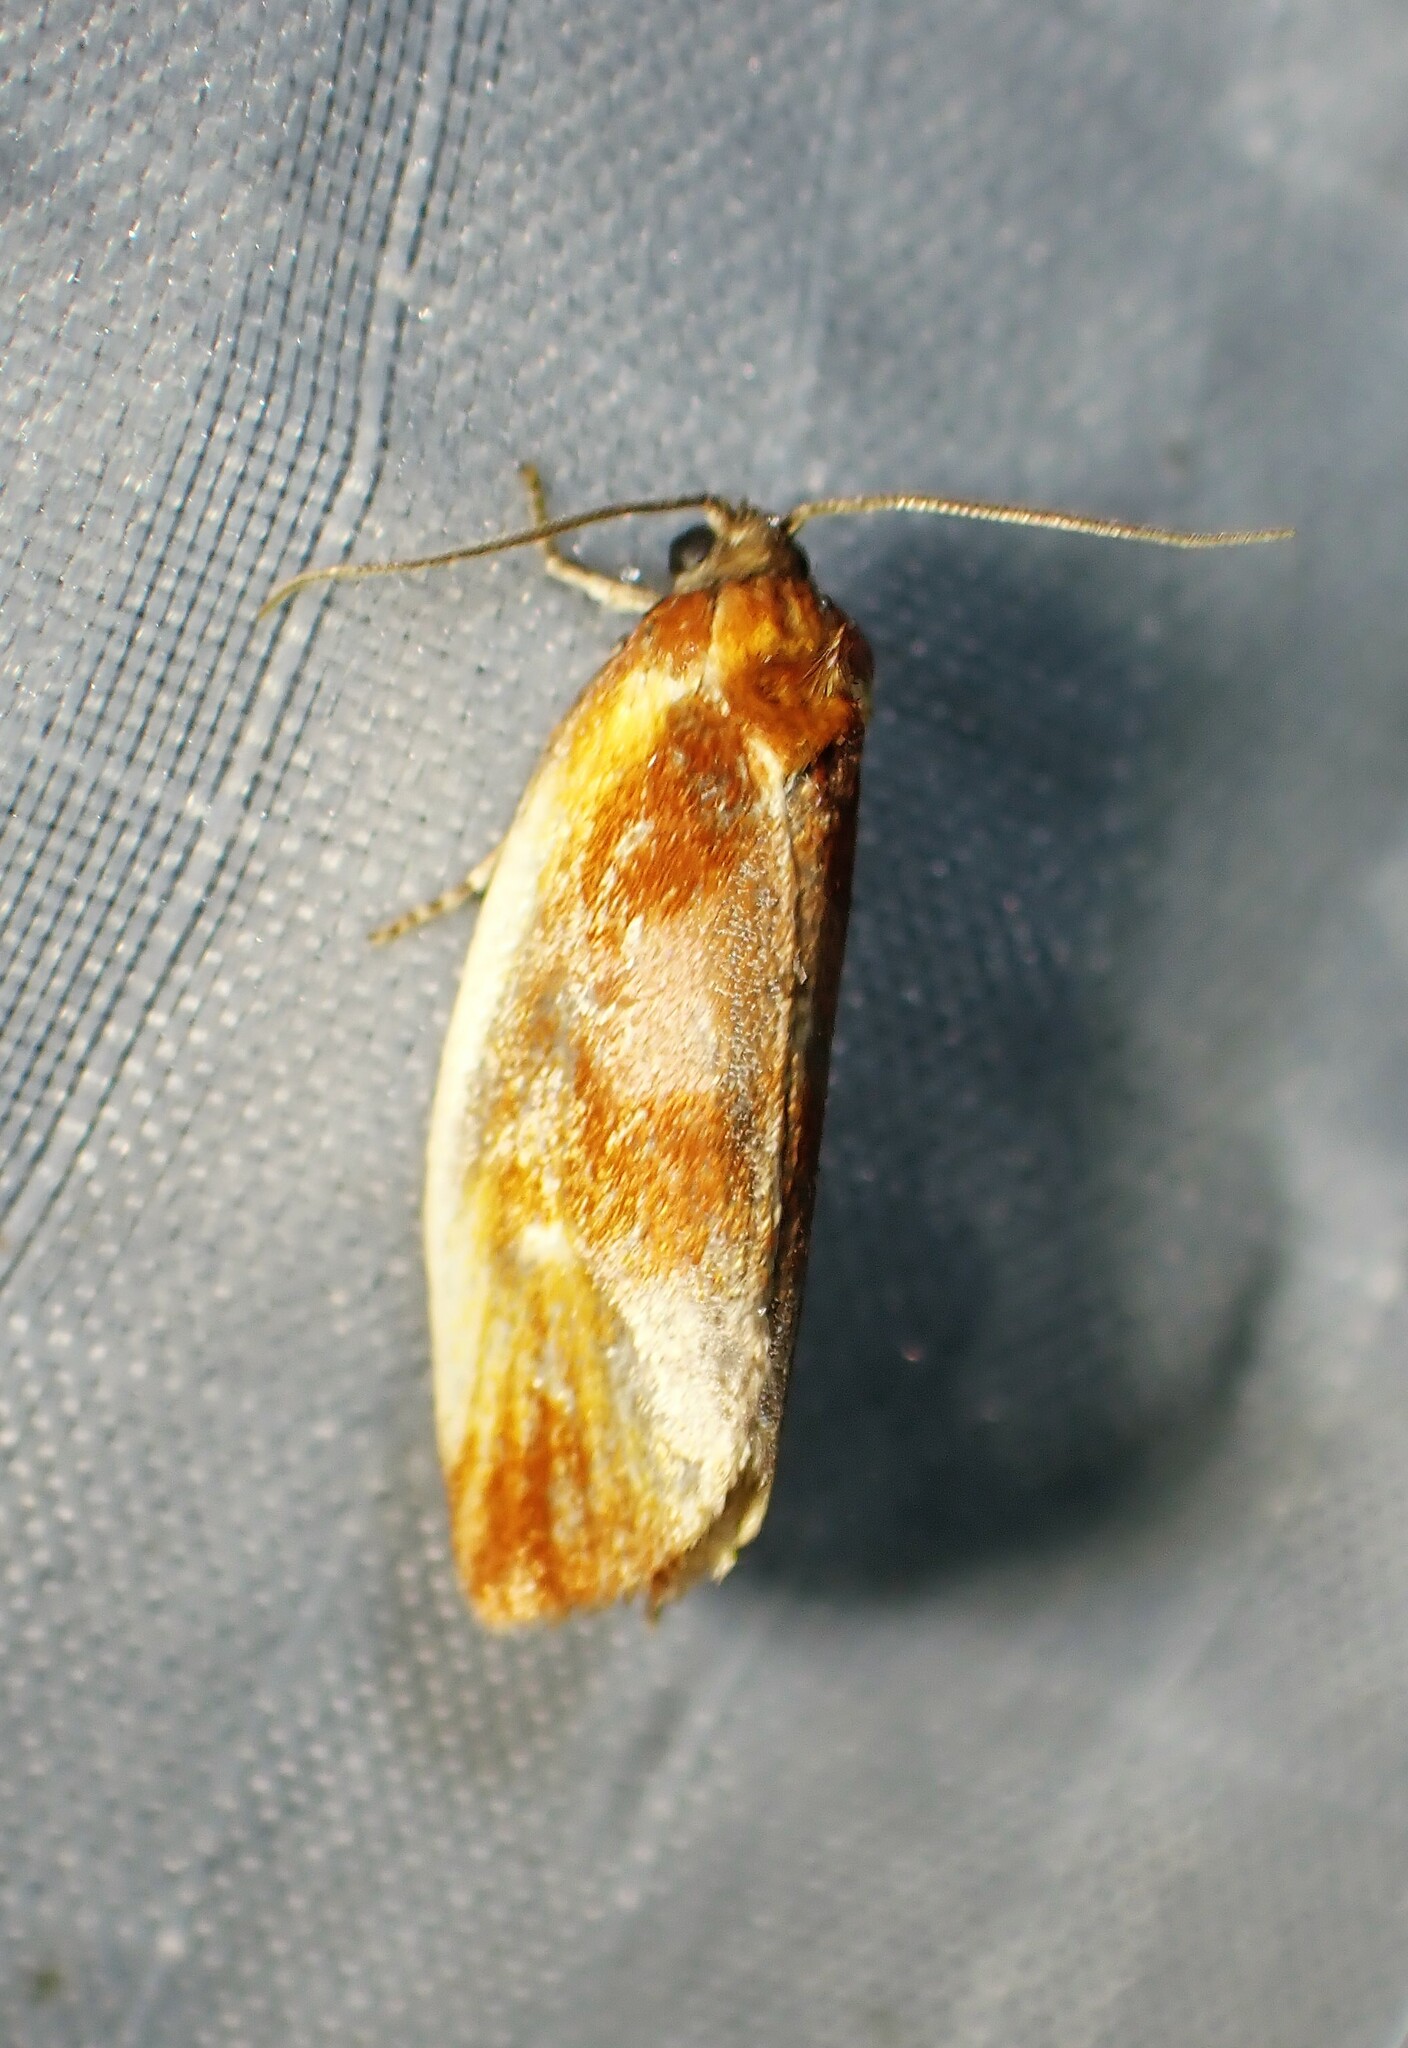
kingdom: Animalia
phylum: Arthropoda
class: Insecta
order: Lepidoptera
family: Tortricidae
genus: Eulia
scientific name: Eulia ministrana
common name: Brassy twist
